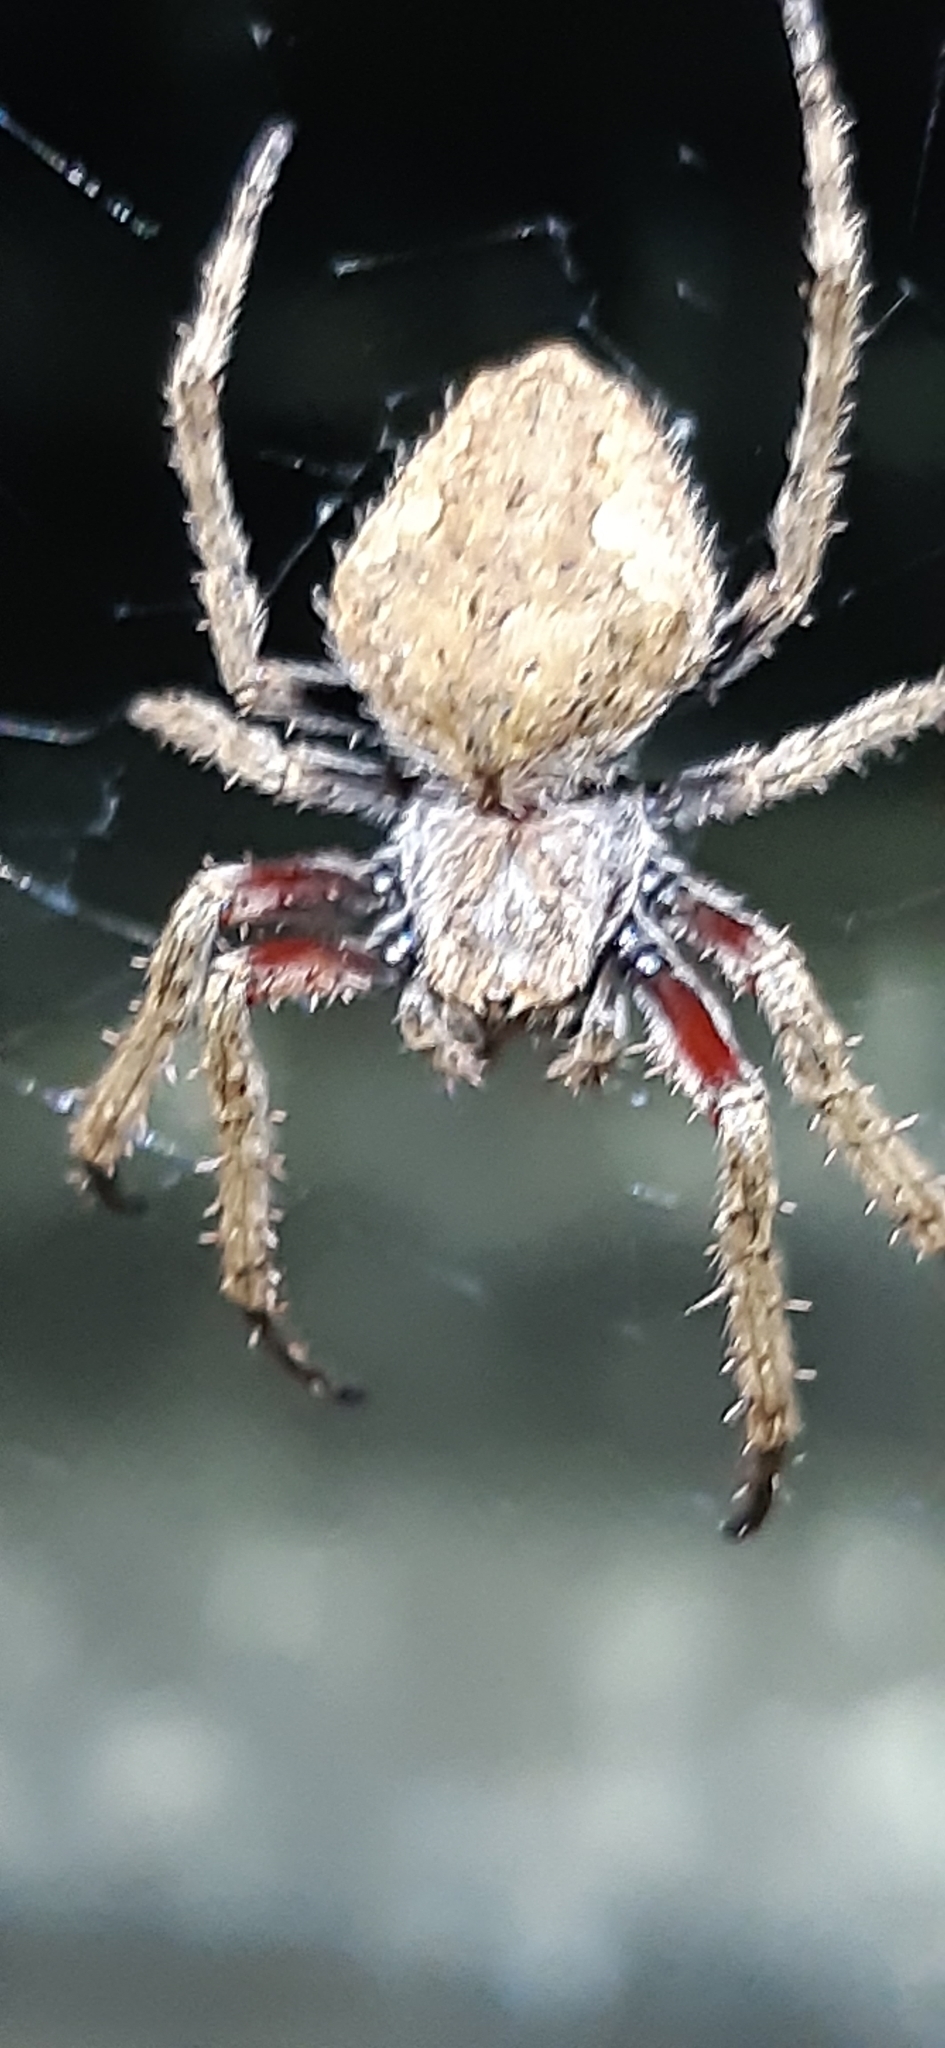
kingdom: Animalia
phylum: Arthropoda
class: Arachnida
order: Araneae
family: Araneidae
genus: Eriophora
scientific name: Eriophora pustulosa
